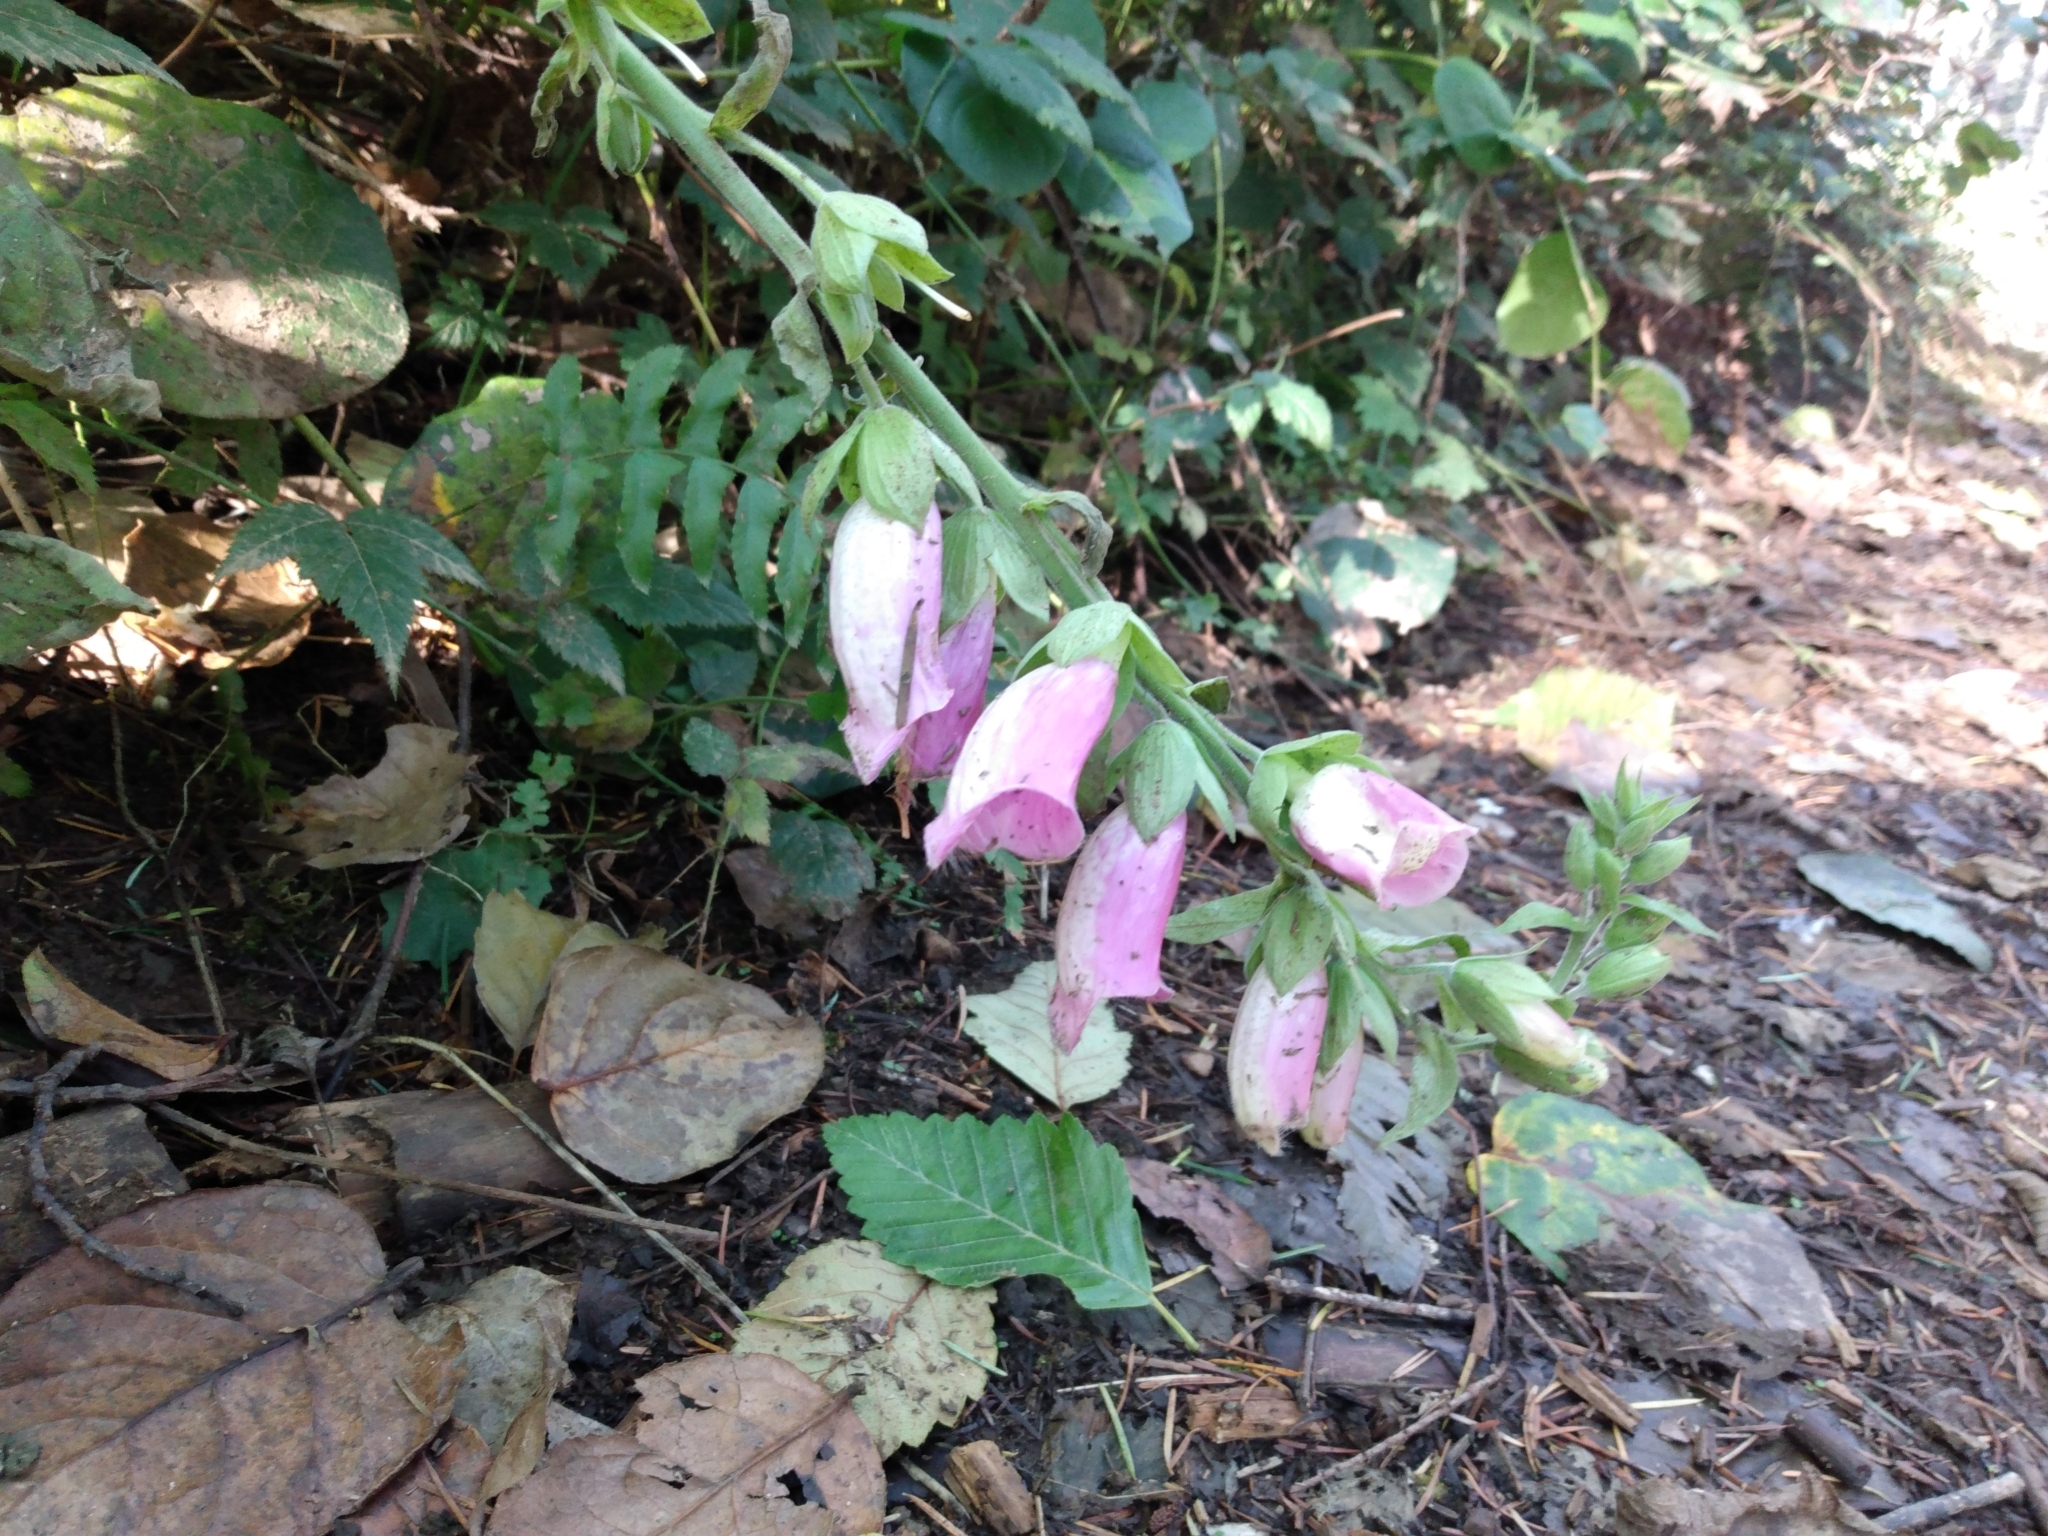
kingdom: Plantae
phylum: Tracheophyta
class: Magnoliopsida
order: Lamiales
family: Plantaginaceae
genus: Digitalis
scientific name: Digitalis purpurea
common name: Foxglove
